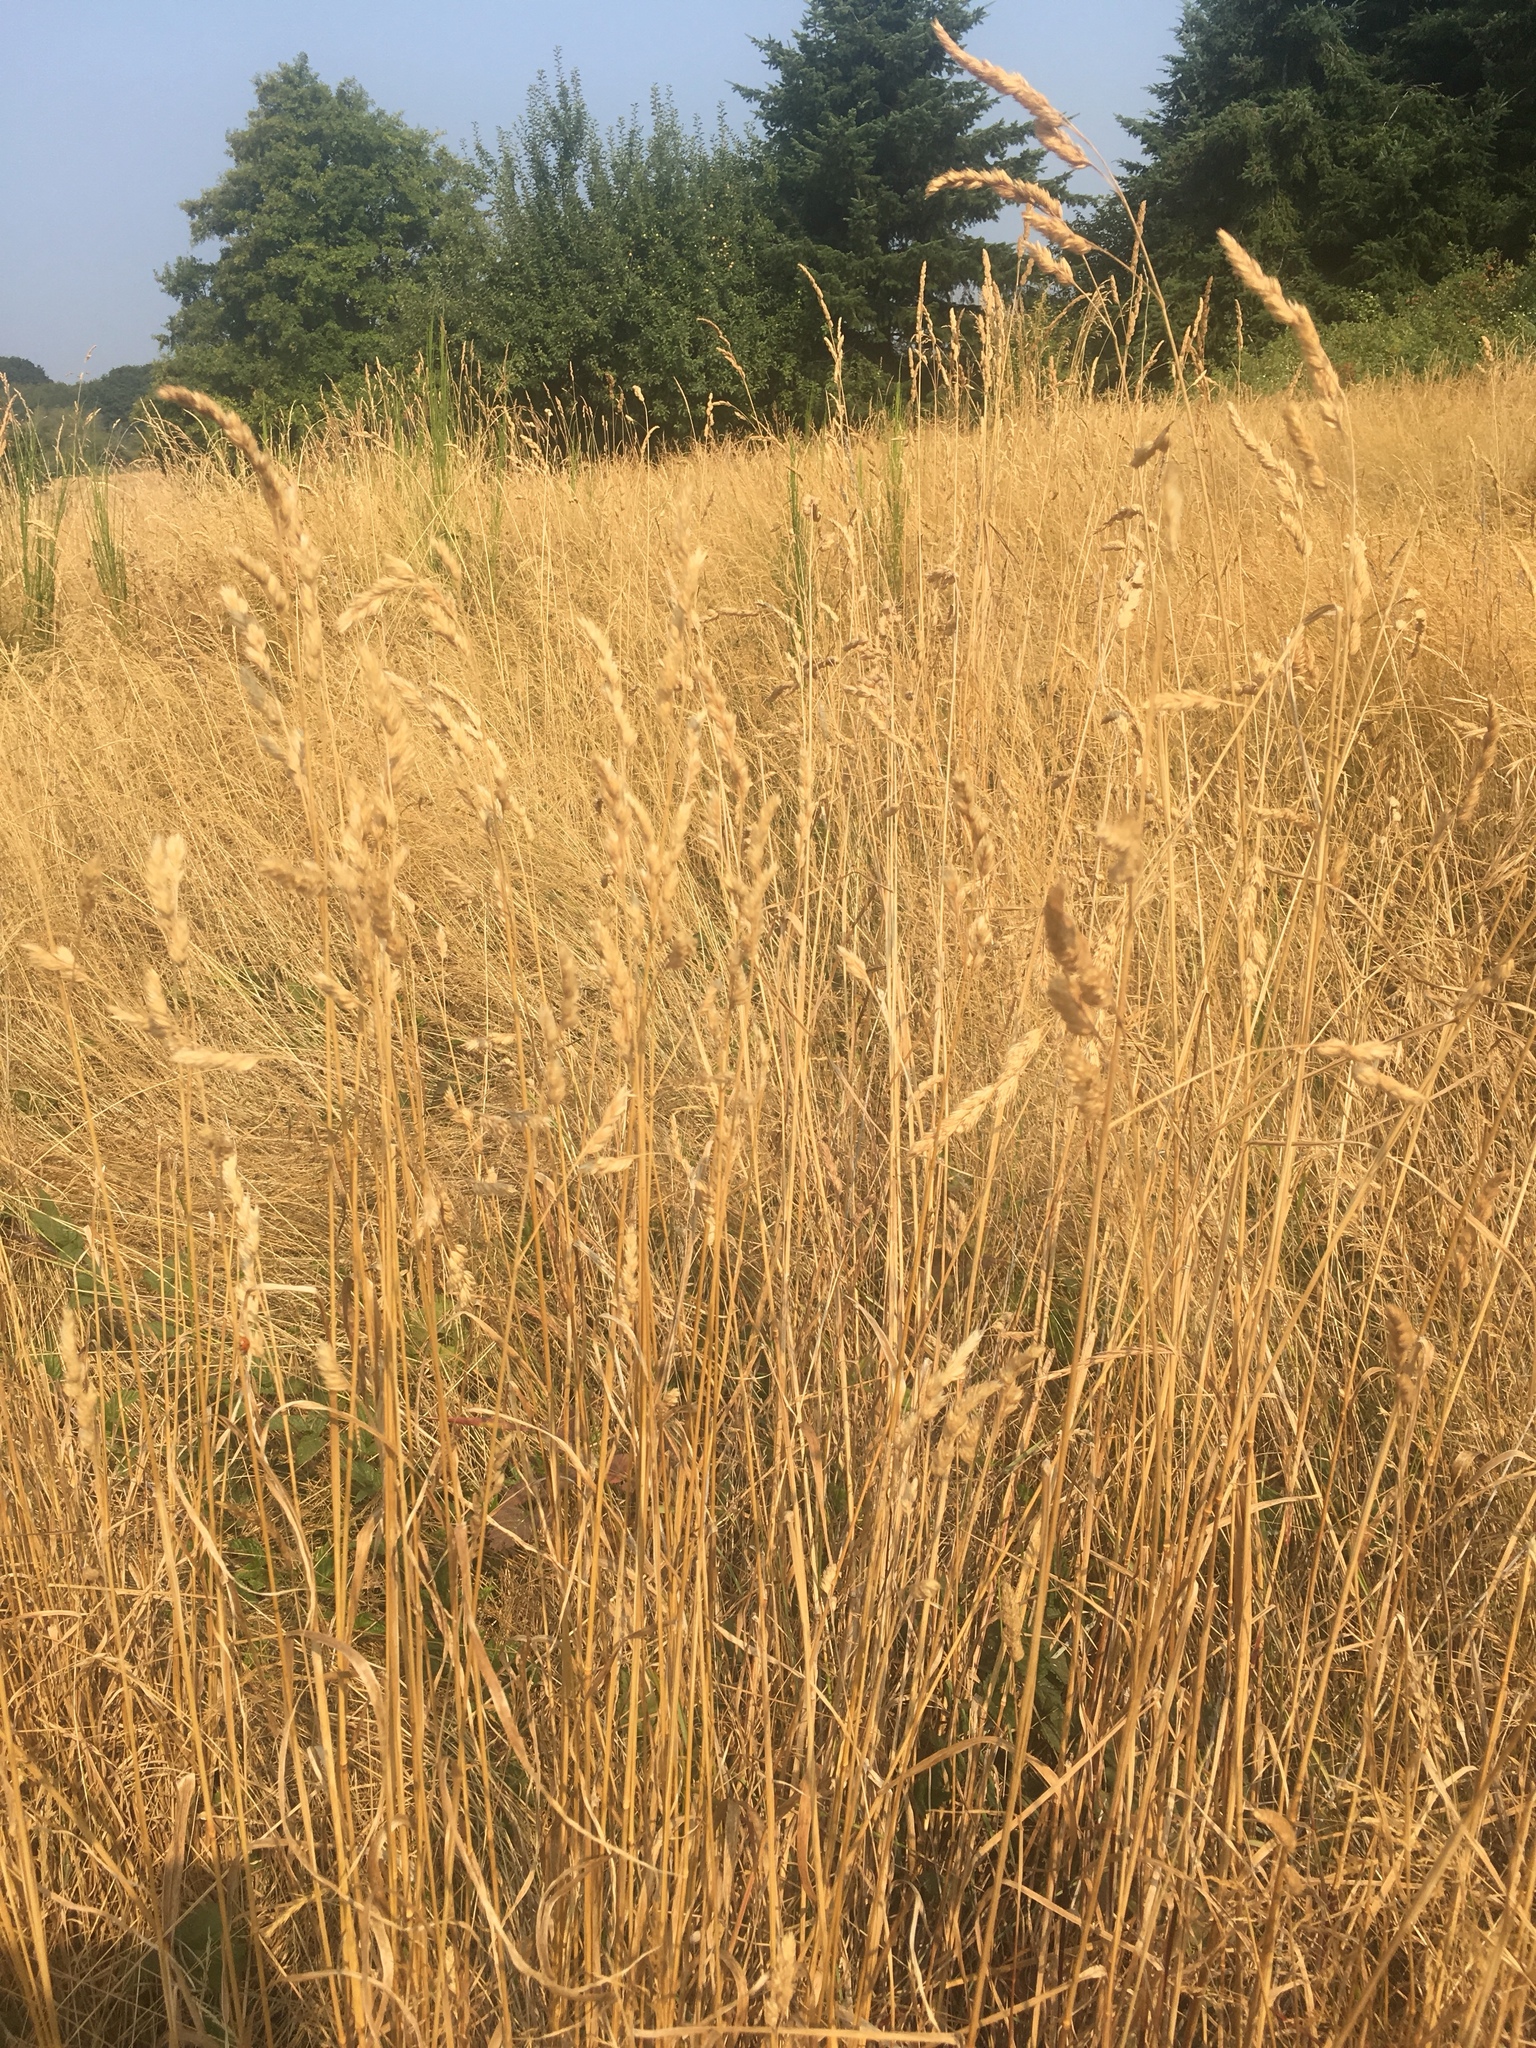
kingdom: Plantae
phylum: Tracheophyta
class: Liliopsida
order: Poales
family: Poaceae
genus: Dactylis
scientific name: Dactylis glomerata
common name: Orchardgrass
